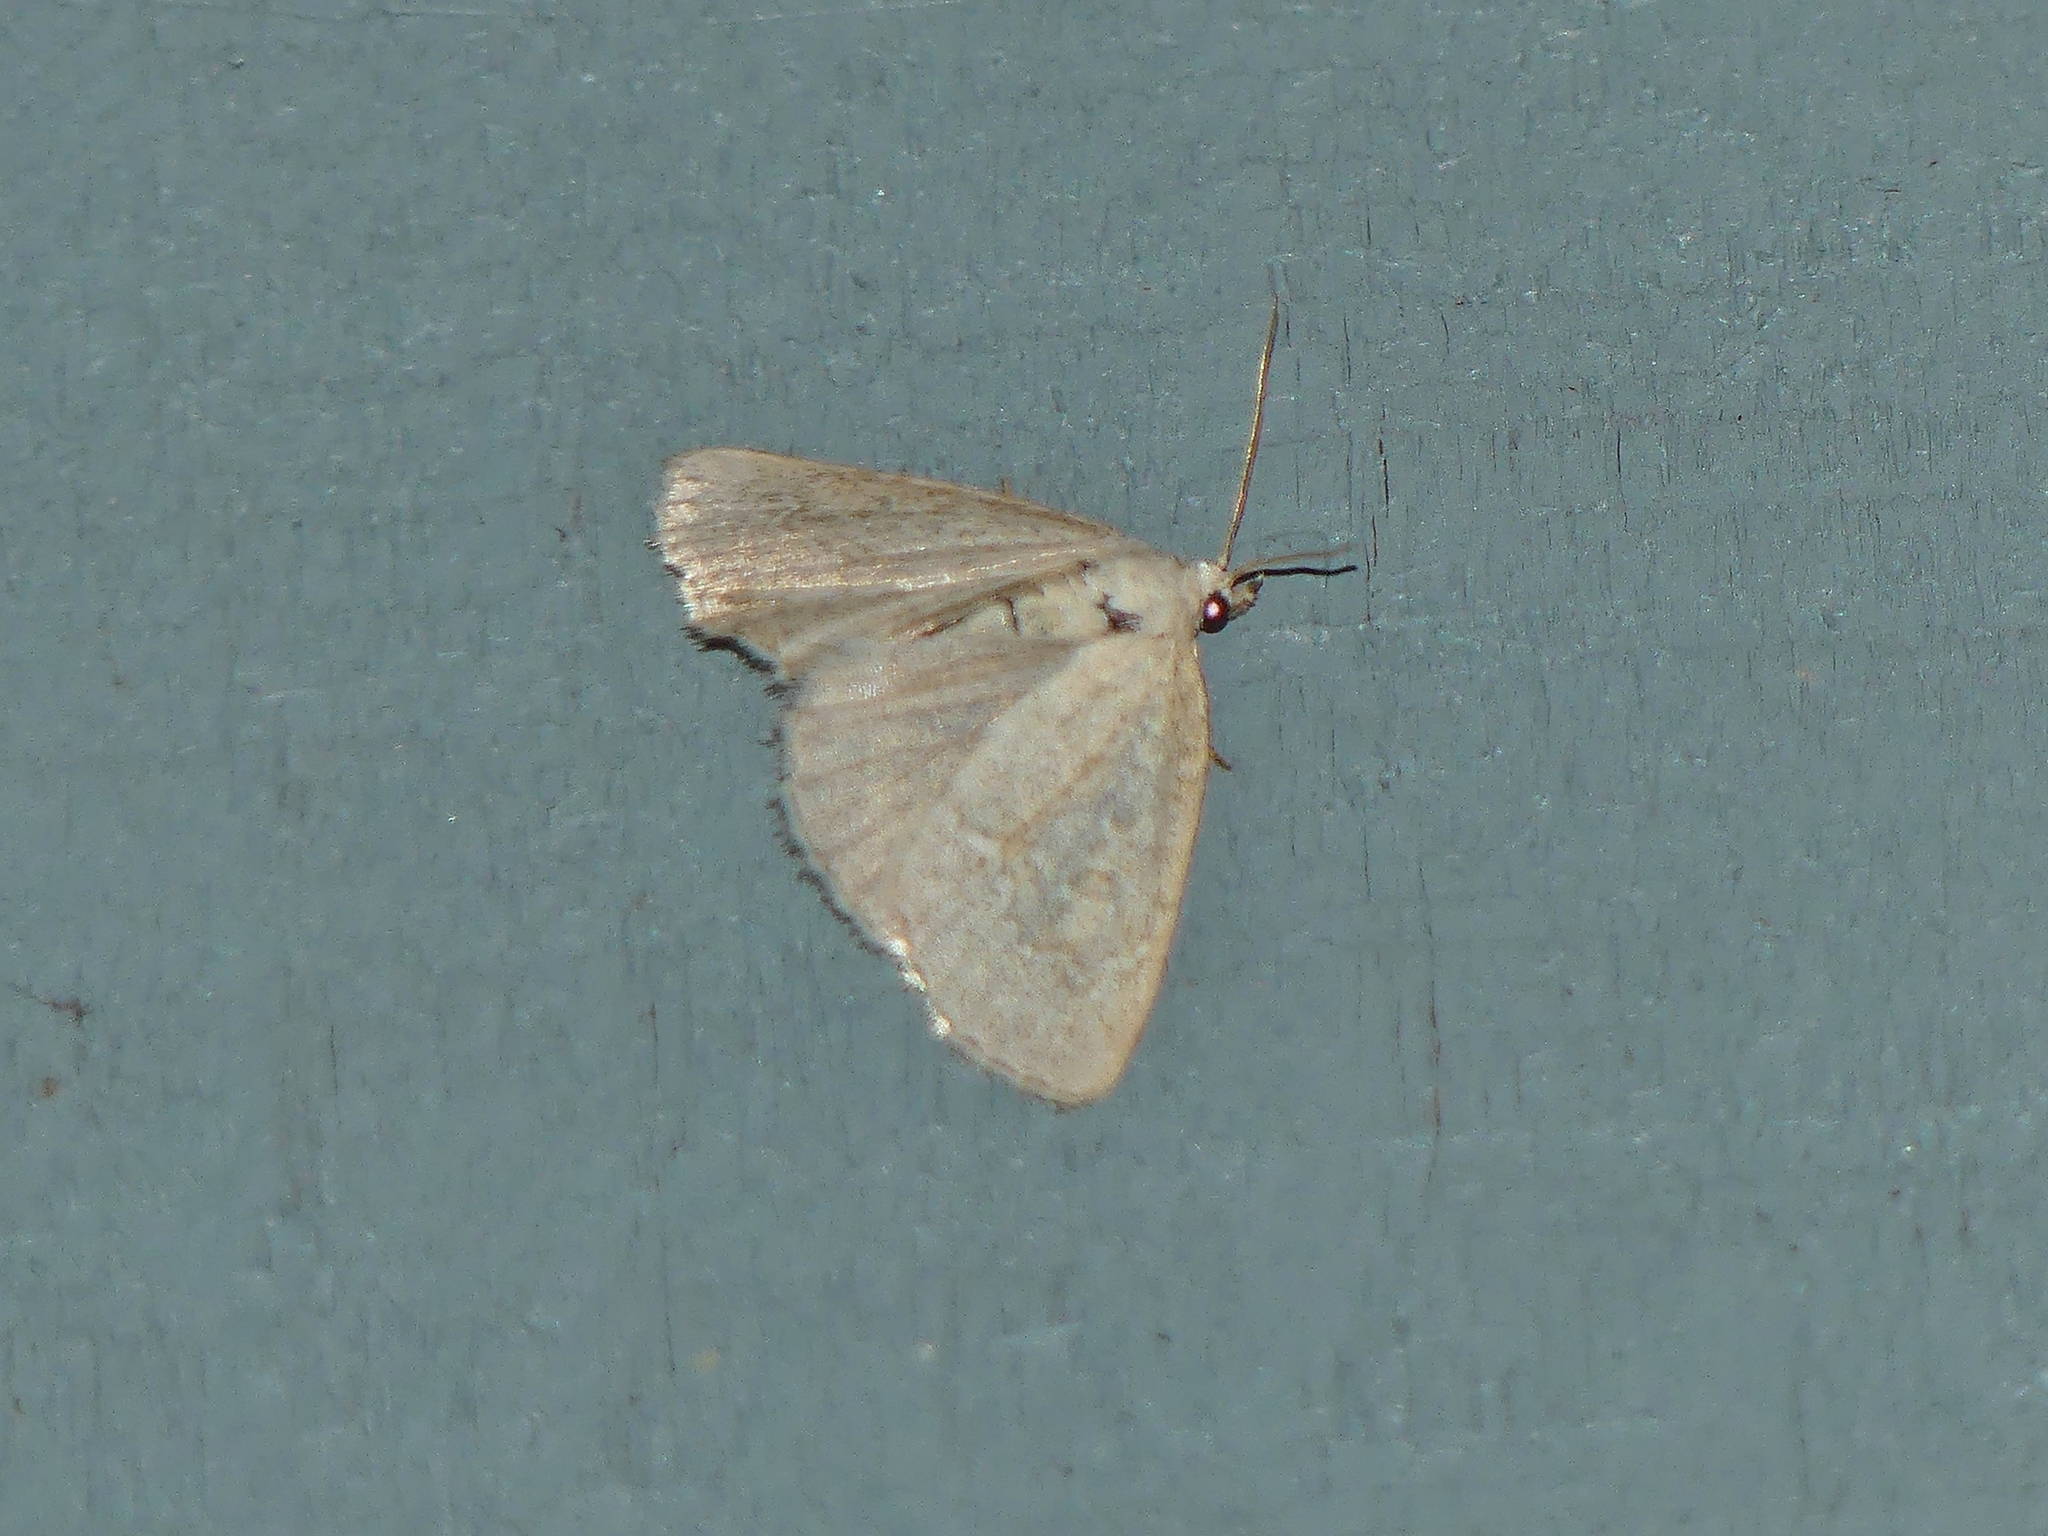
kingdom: Animalia
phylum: Arthropoda
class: Insecta
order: Lepidoptera
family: Noctuidae
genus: Protodeltote
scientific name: Protodeltote albidula
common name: Pale glyph
